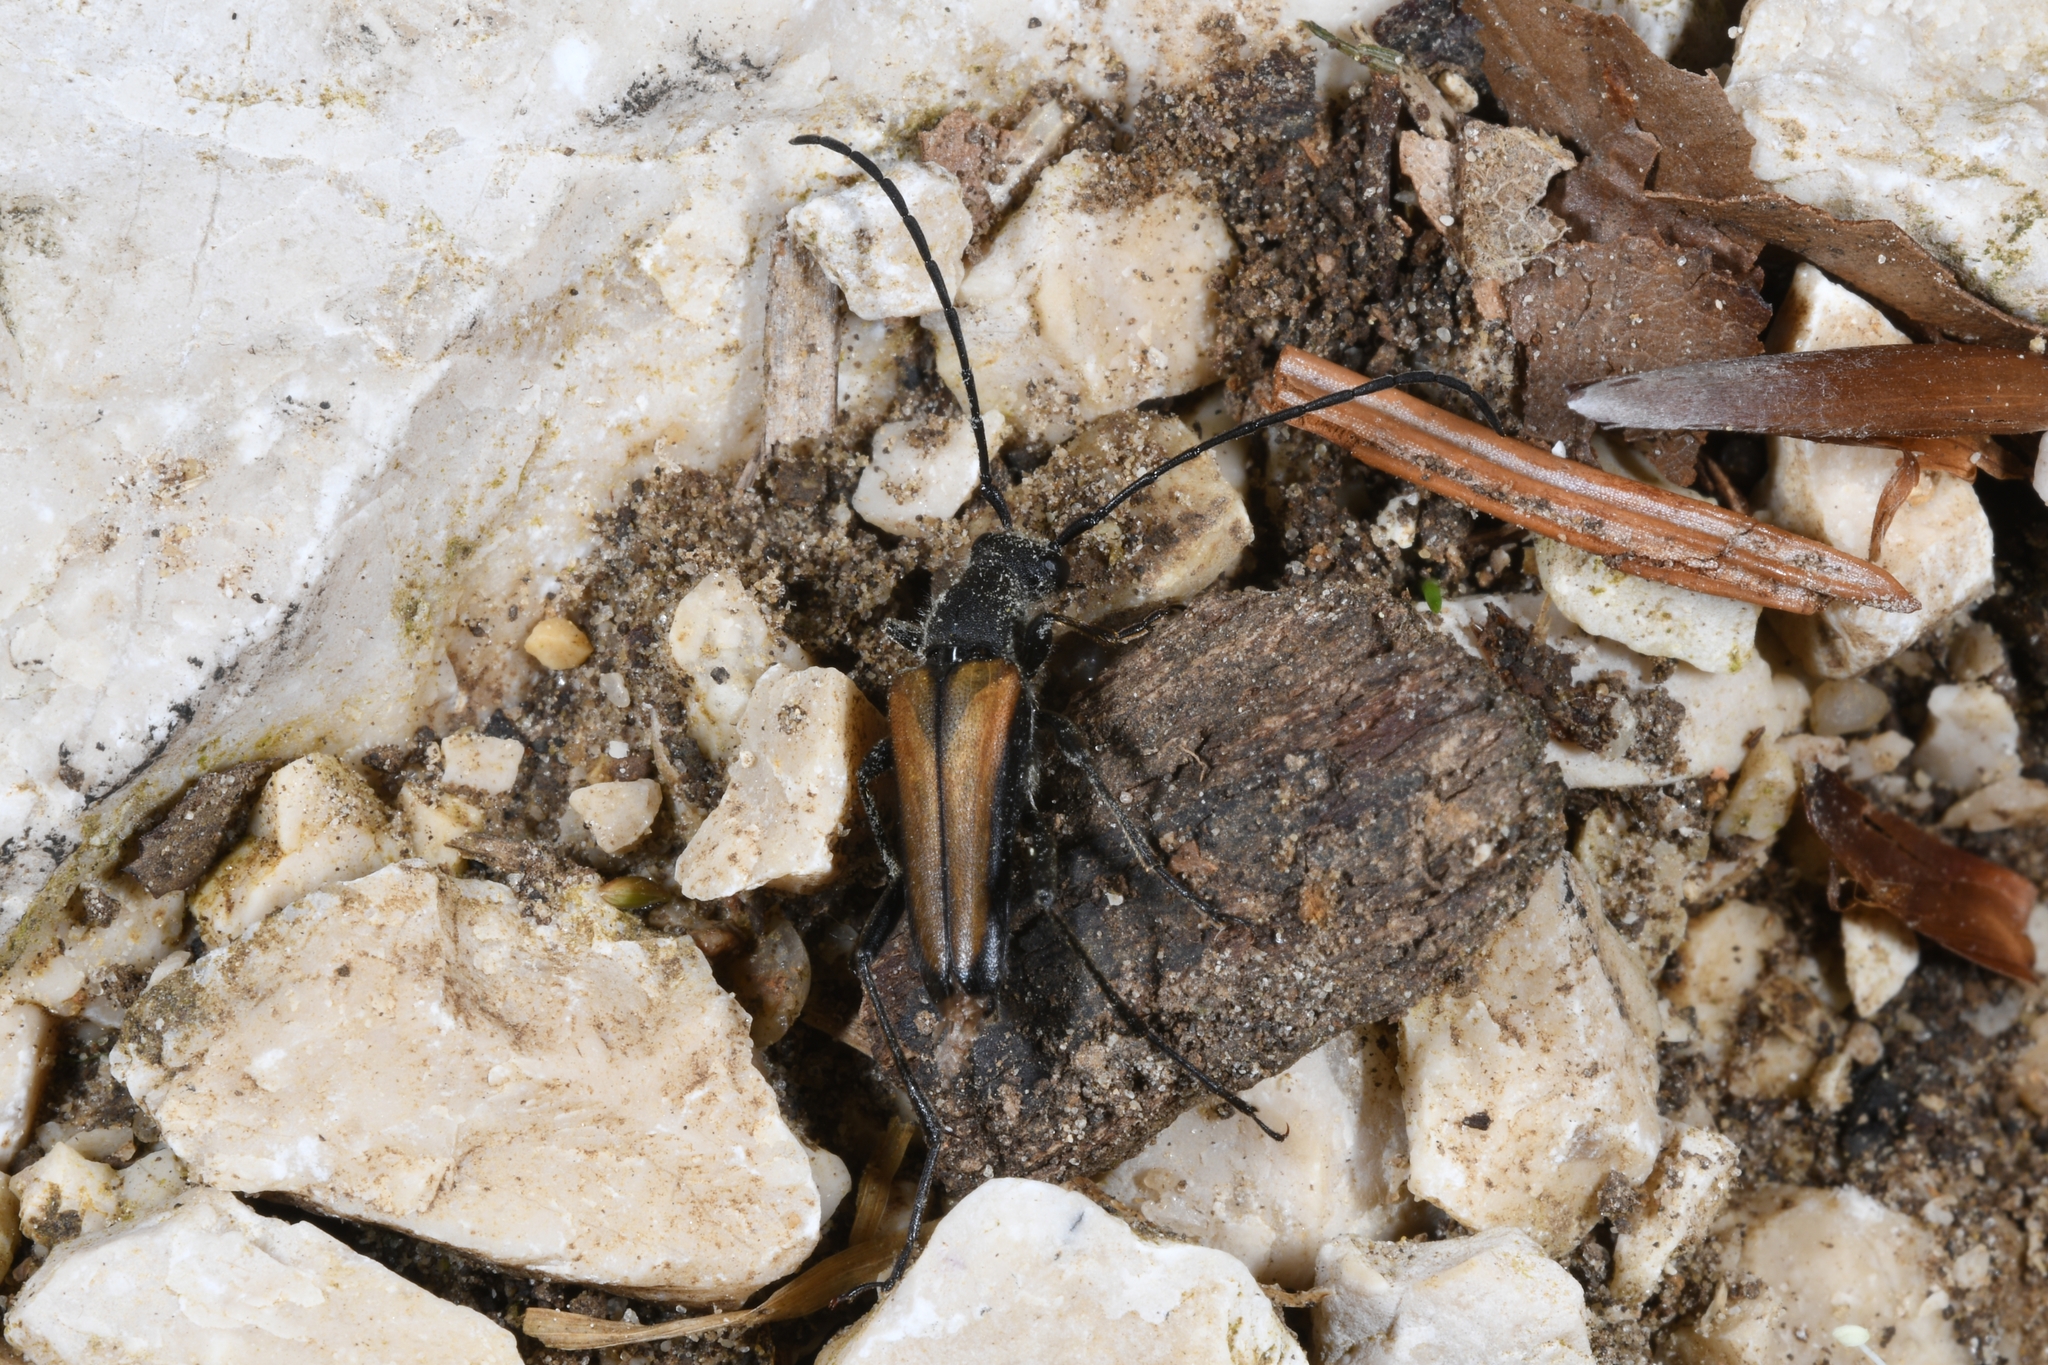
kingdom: Animalia
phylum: Arthropoda
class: Insecta
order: Coleoptera
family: Cerambycidae
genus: Anastrangalia
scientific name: Anastrangalia dubia
